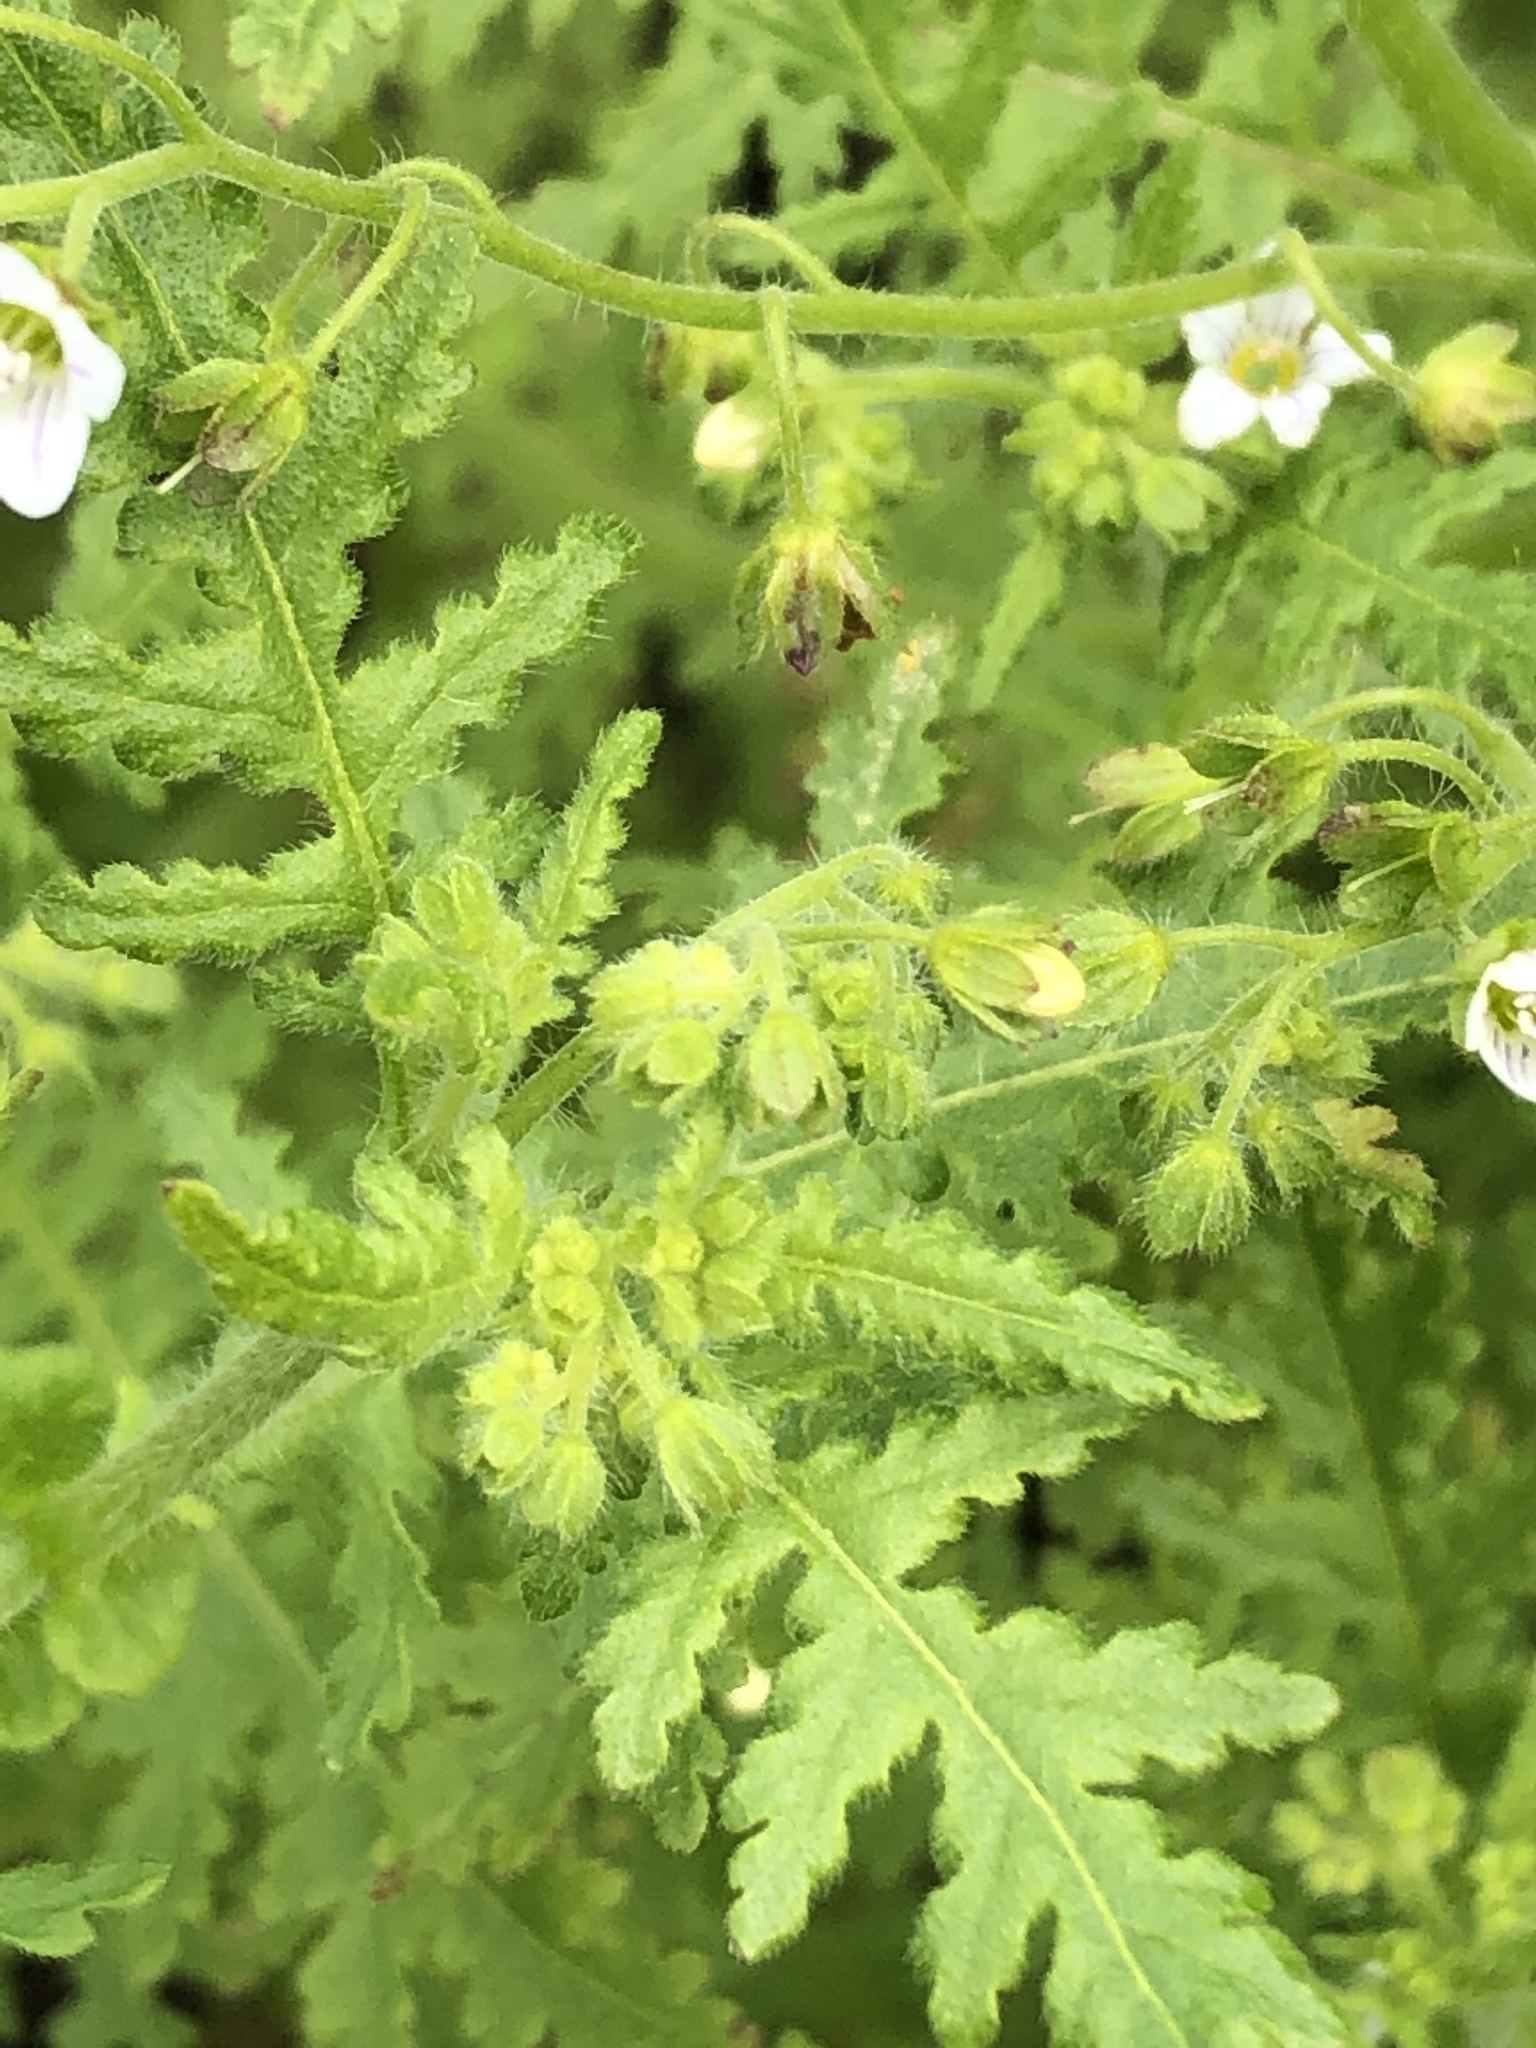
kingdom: Plantae
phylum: Tracheophyta
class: Magnoliopsida
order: Boraginales
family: Hydrophyllaceae
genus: Eucrypta
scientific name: Eucrypta chrysanthemifolia
